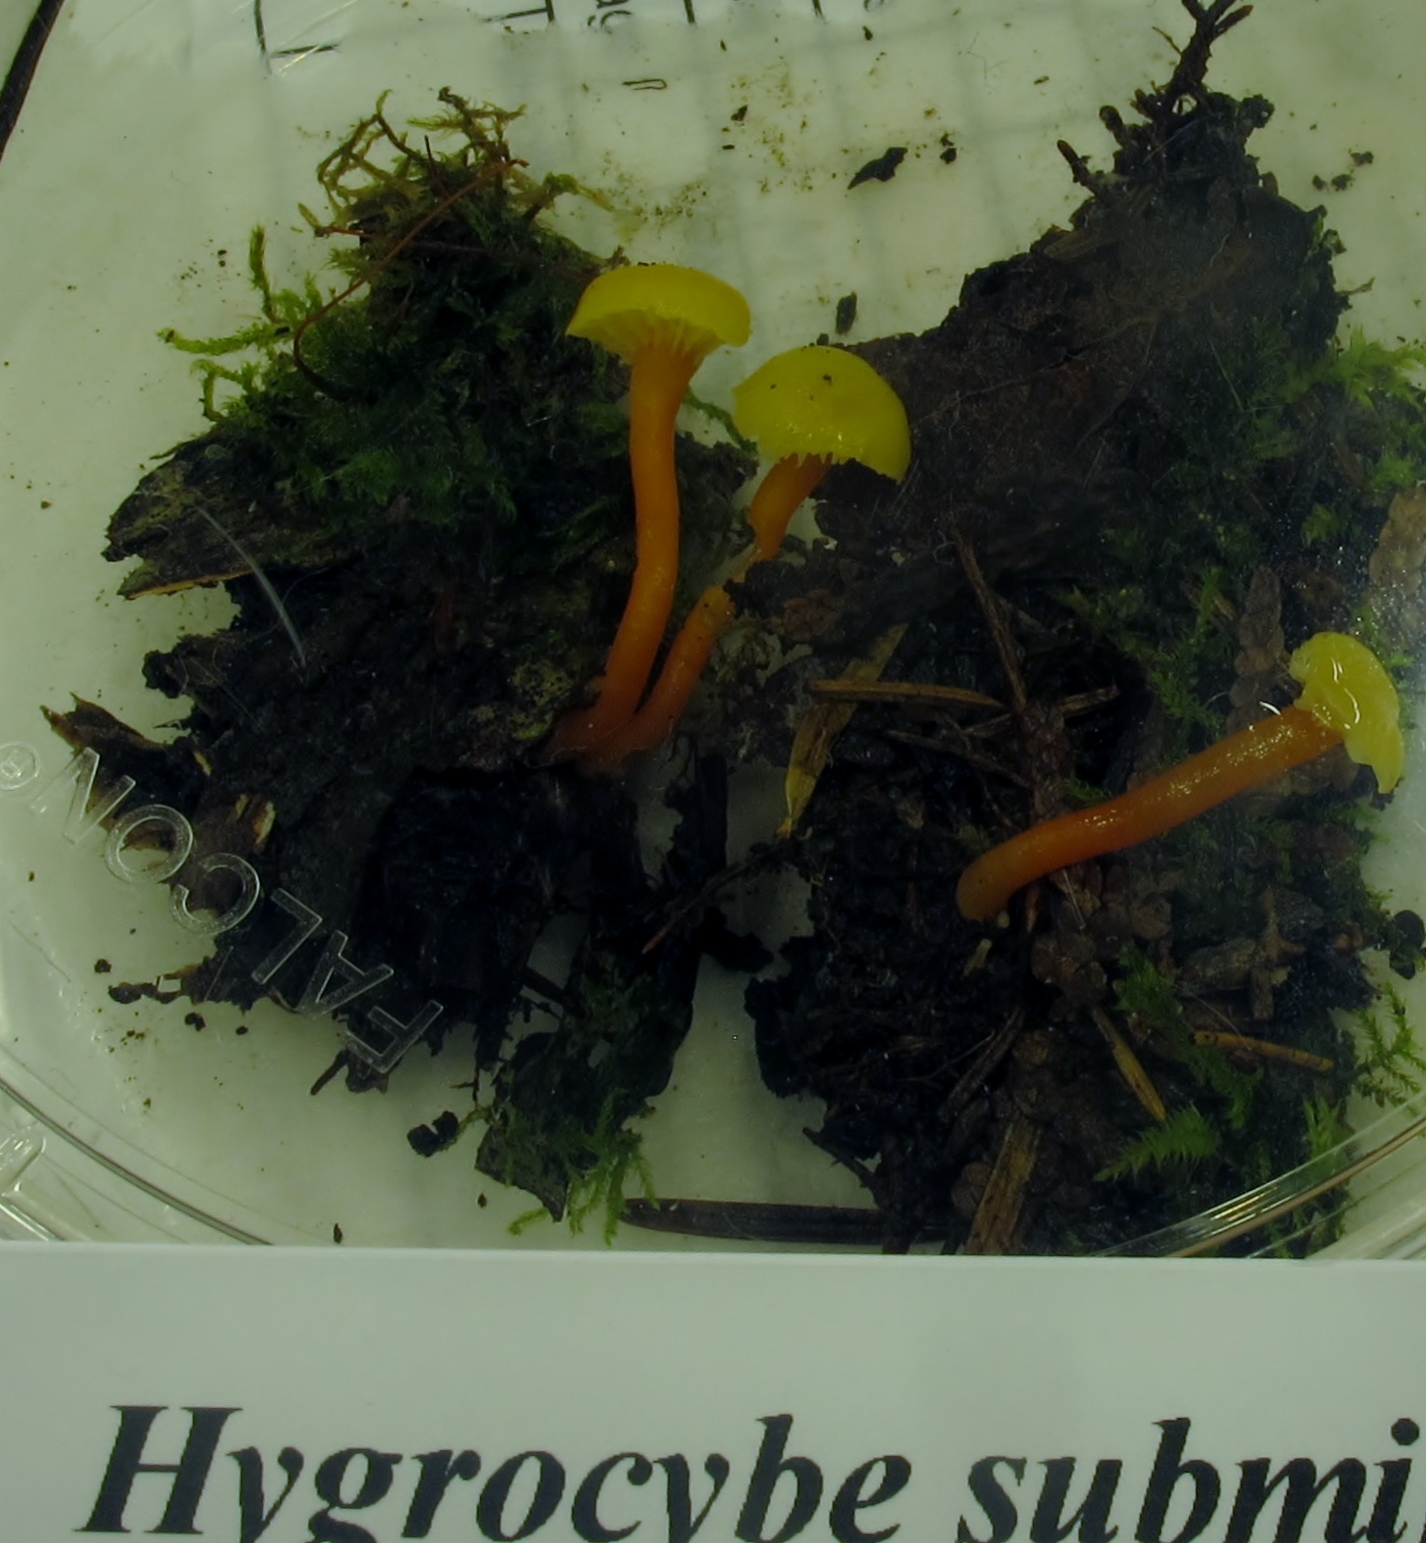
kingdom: Fungi
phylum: Basidiomycota
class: Agaricomycetes
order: Agaricales
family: Hygrophoraceae
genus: Hygrocybe
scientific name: Hygrocybe insipida
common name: Spangle waxcap
